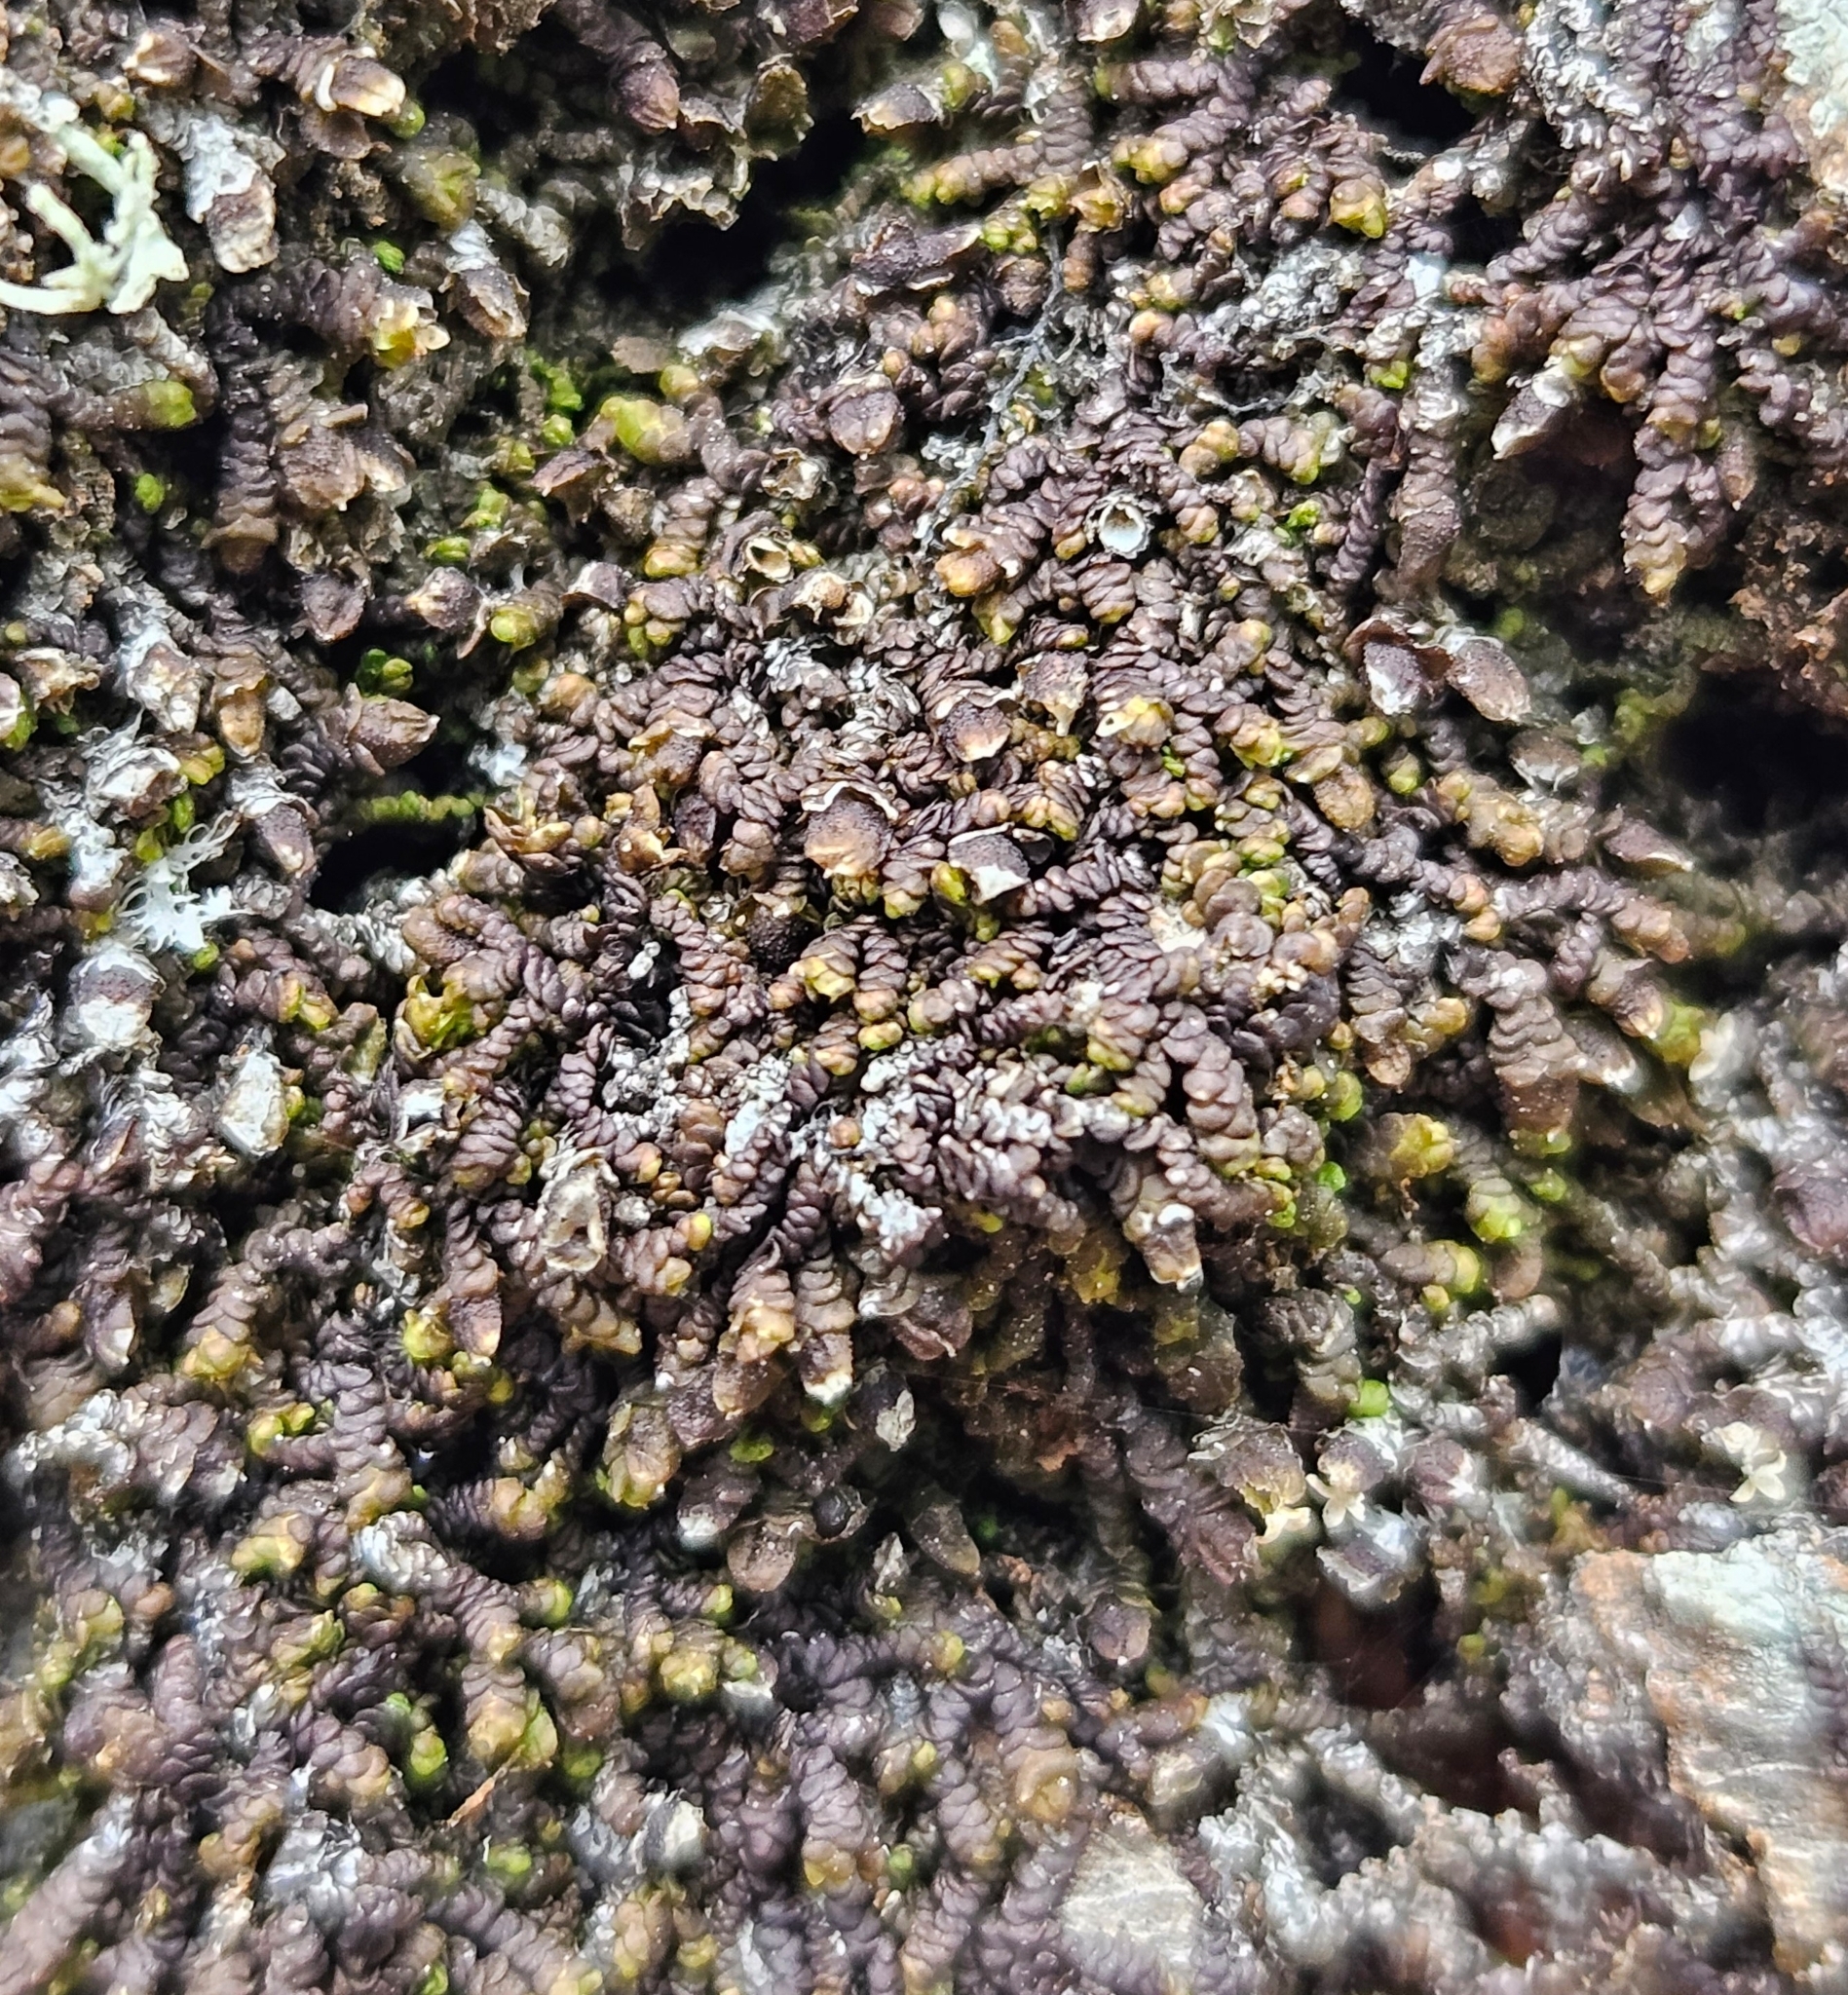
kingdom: Plantae
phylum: Marchantiophyta
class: Jungermanniopsida
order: Porellales
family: Frullaniaceae
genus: Frullania
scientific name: Frullania dilatata
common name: Dilated scalewort
